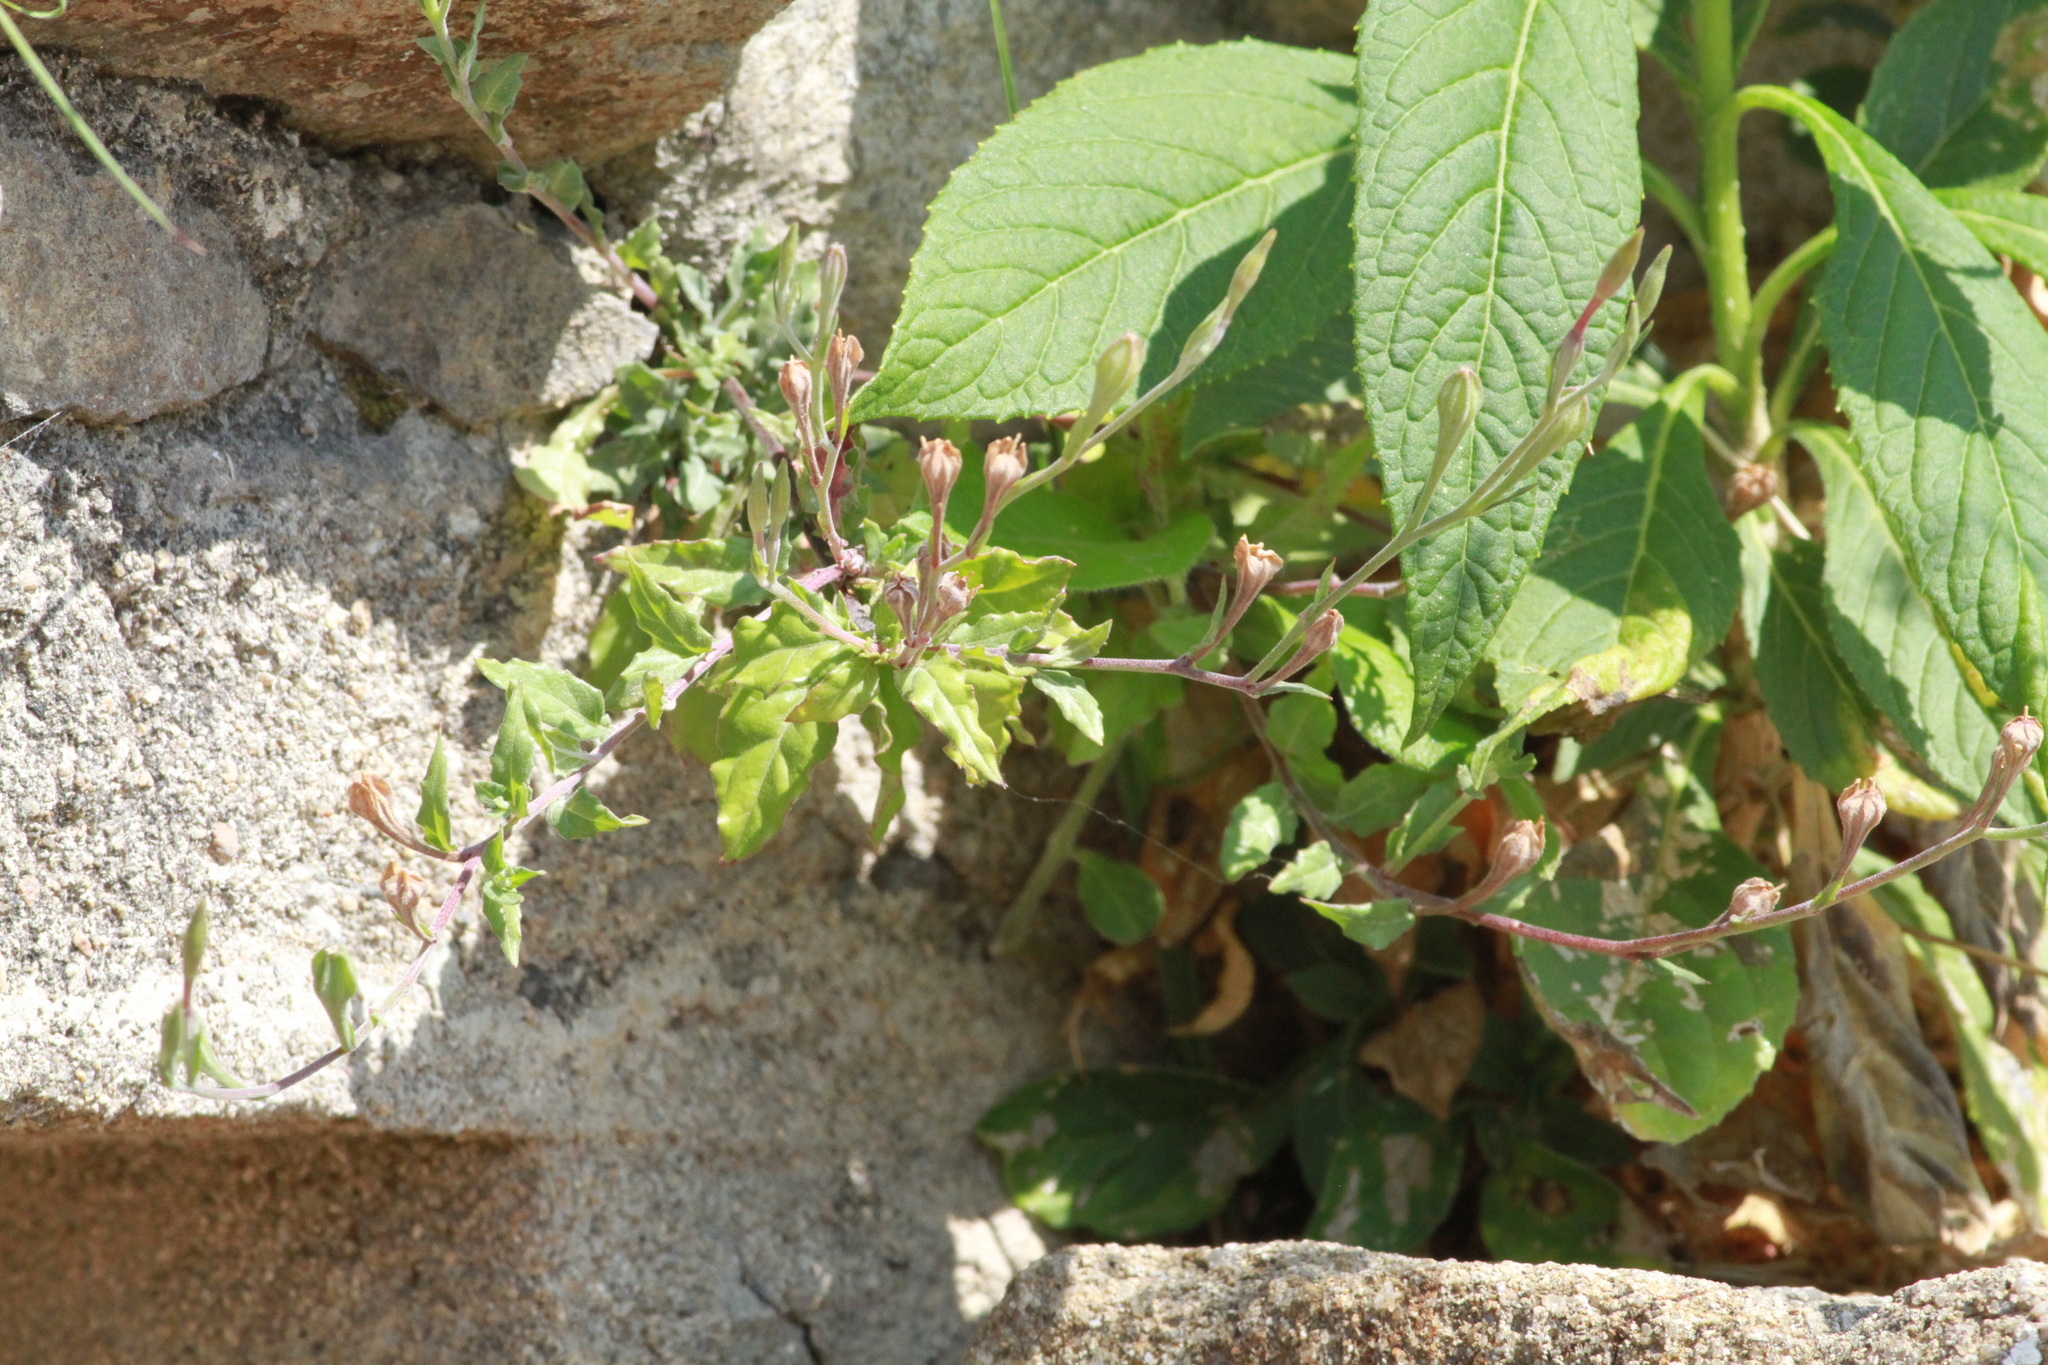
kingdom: Plantae
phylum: Tracheophyta
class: Magnoliopsida
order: Myrtales
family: Onagraceae
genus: Oenothera
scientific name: Oenothera rosea
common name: Rosy evening-primrose
